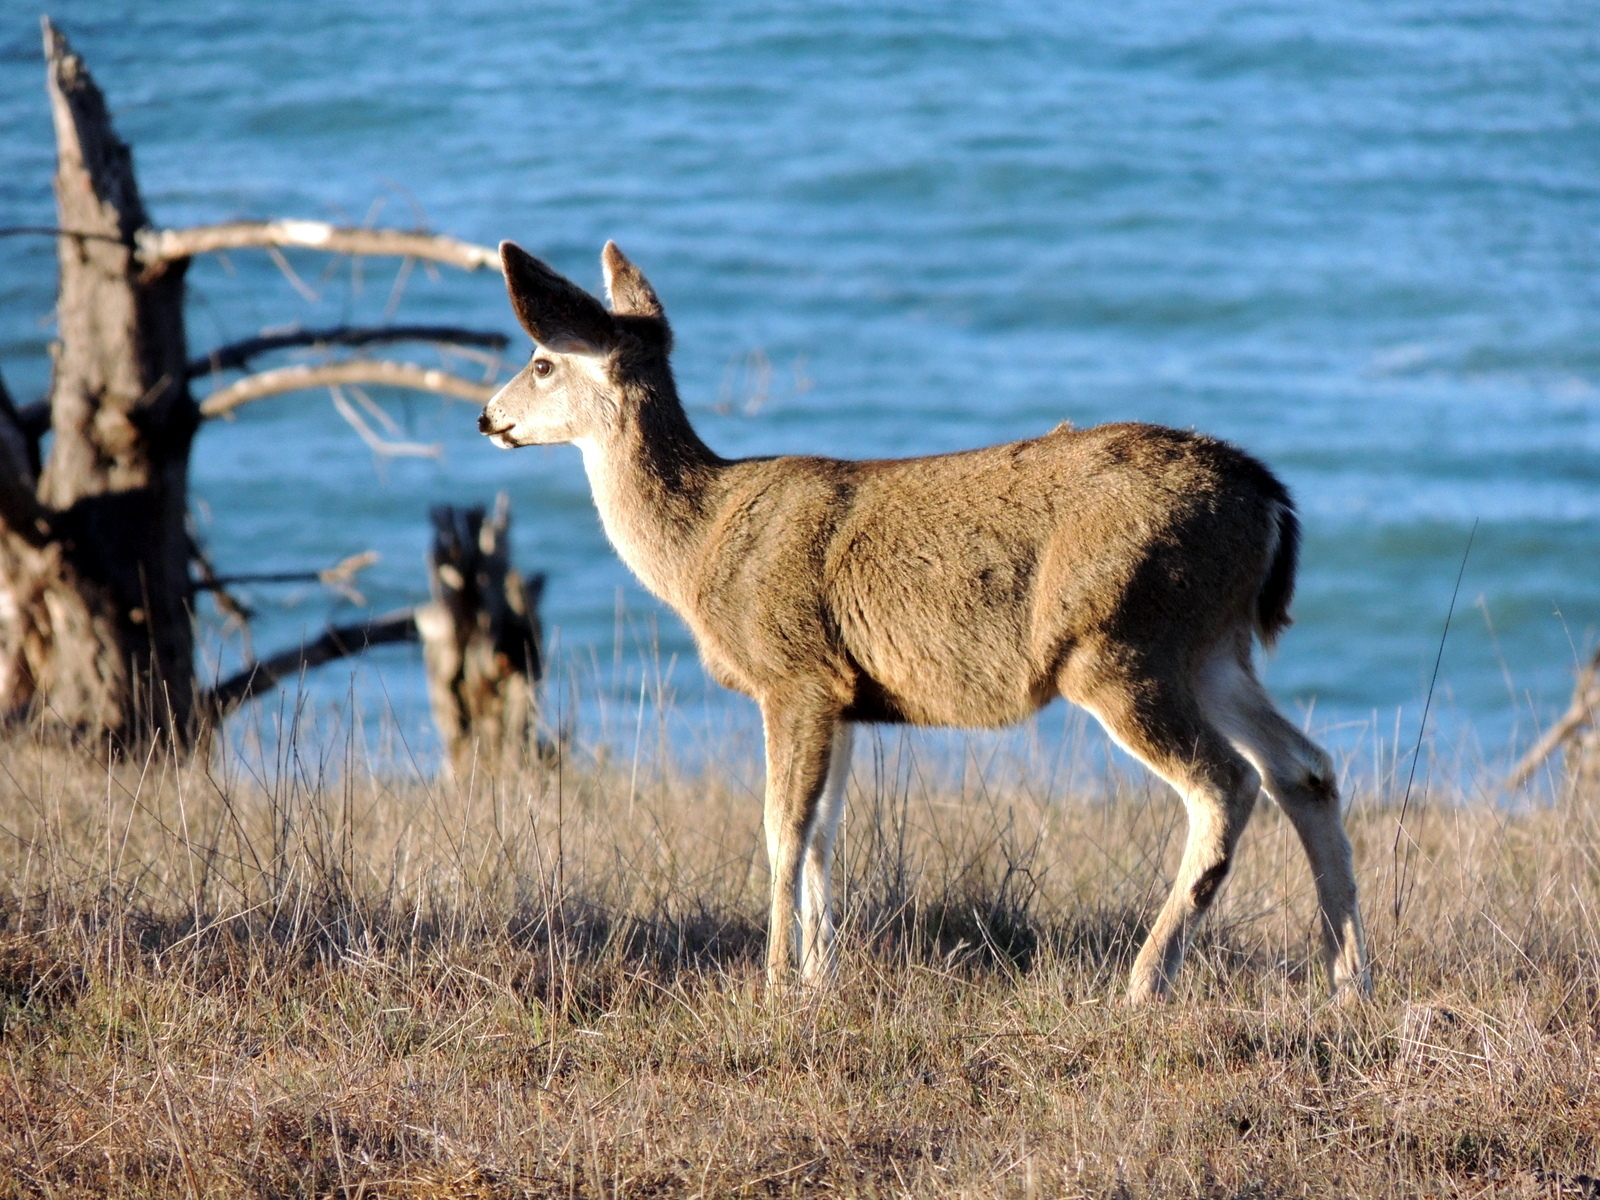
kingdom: Animalia
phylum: Chordata
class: Mammalia
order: Artiodactyla
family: Cervidae
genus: Odocoileus
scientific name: Odocoileus hemionus
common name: Mule deer
